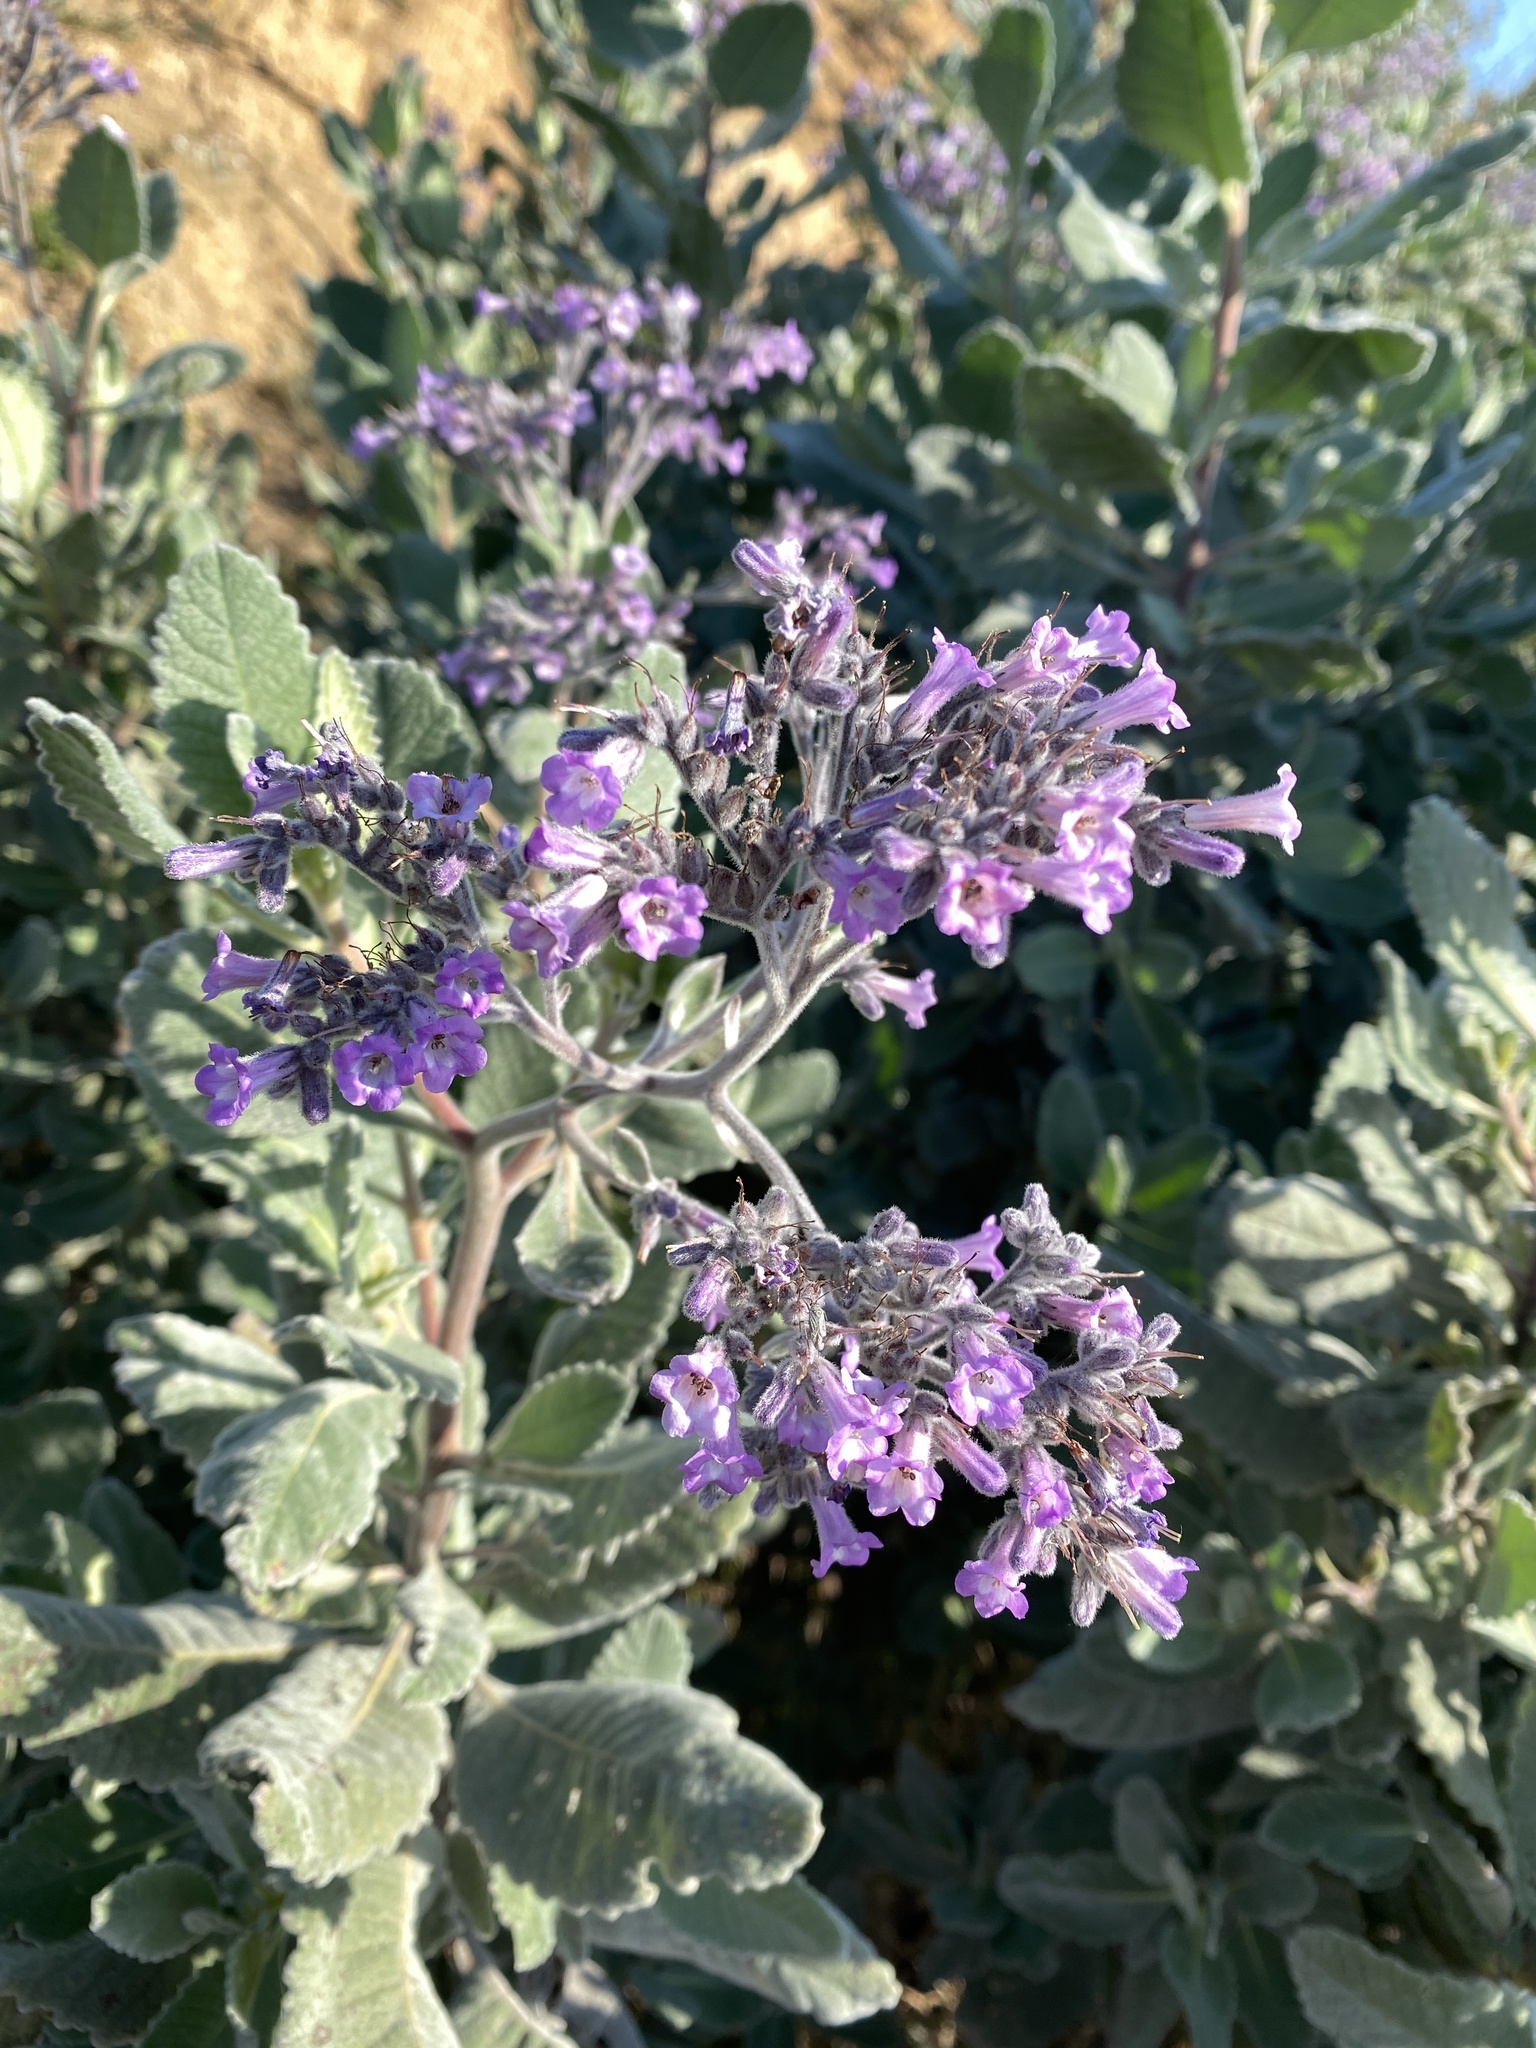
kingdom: Plantae
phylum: Tracheophyta
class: Magnoliopsida
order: Boraginales
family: Namaceae
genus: Eriodictyon
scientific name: Eriodictyon crassifolium
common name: Thick-leaf yerba-santa
